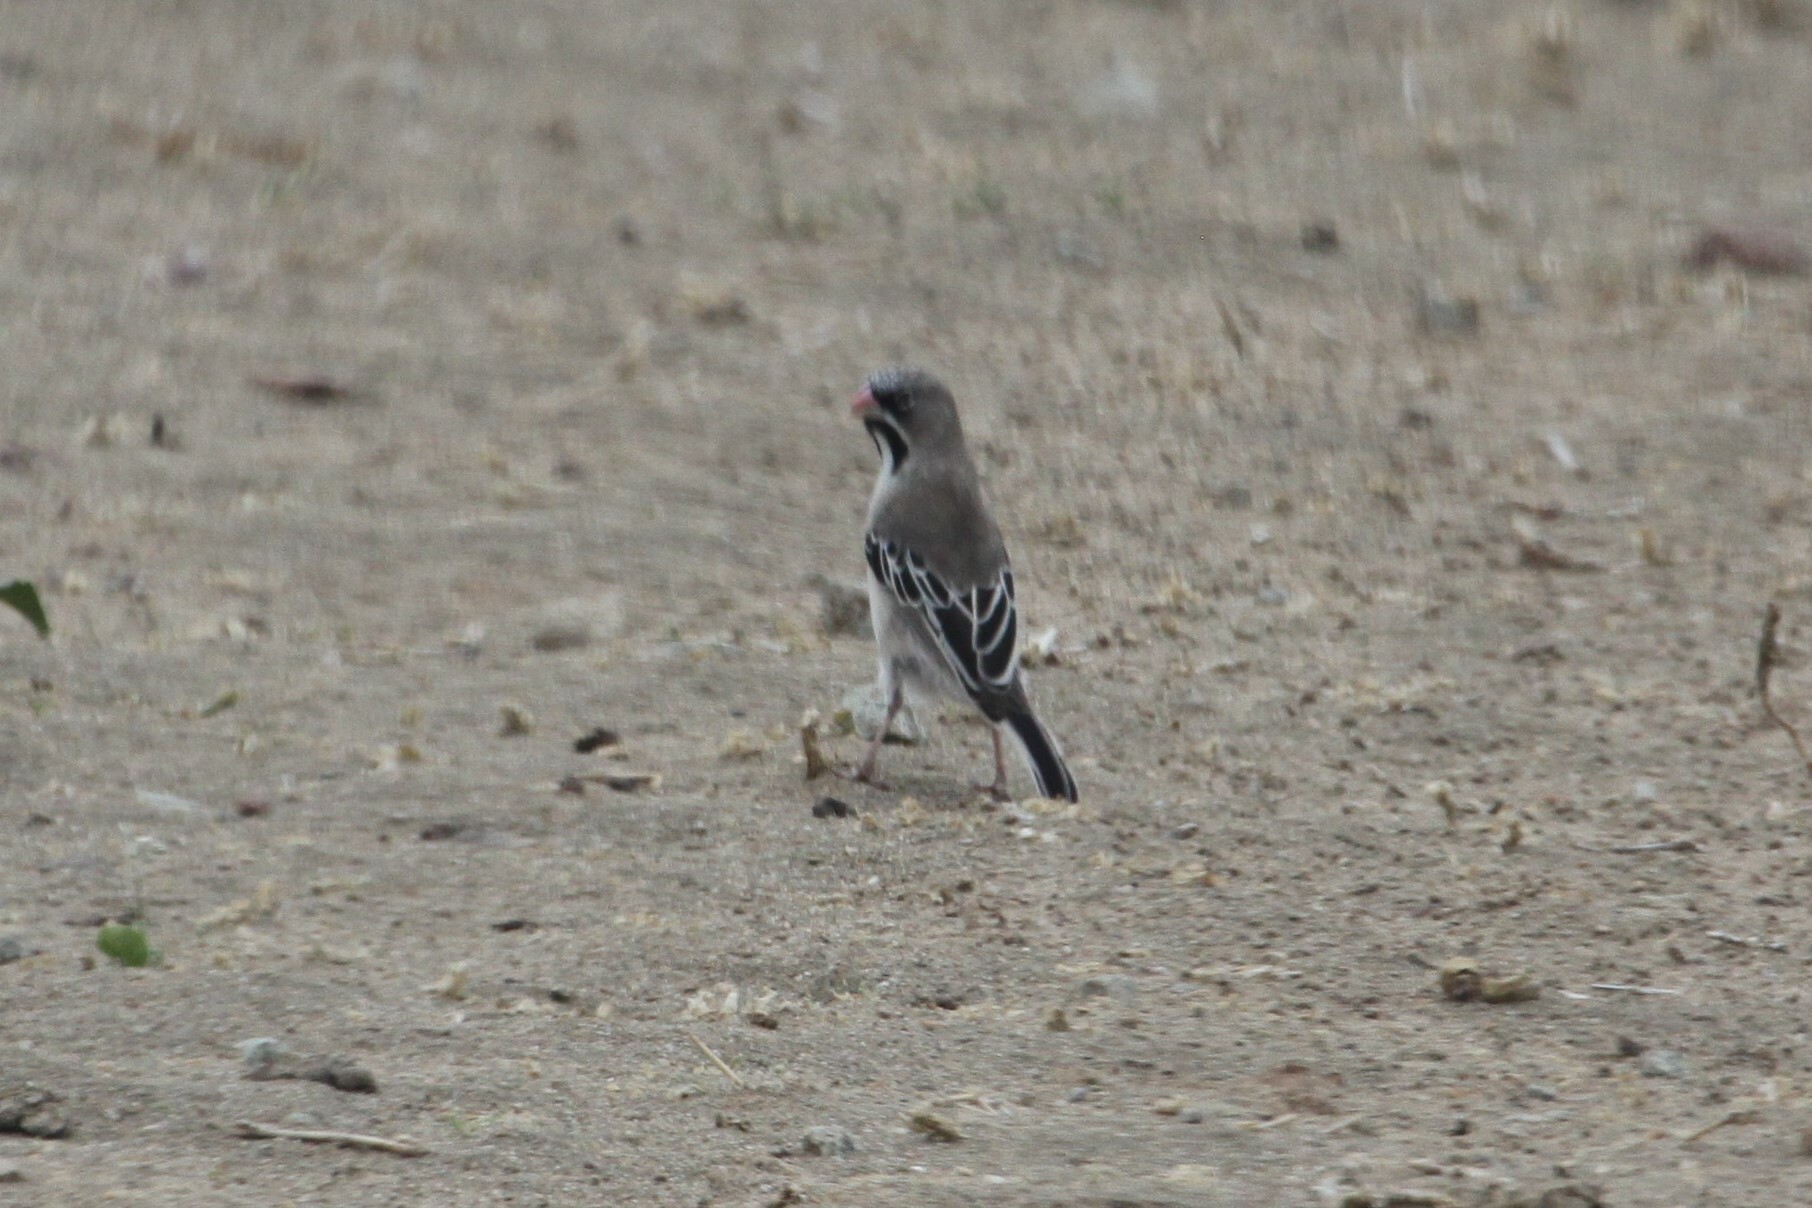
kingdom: Animalia
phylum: Chordata
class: Aves
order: Passeriformes
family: Ploceidae
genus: Sporopipes
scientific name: Sporopipes squamifrons
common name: Scaly-feathered weaver
